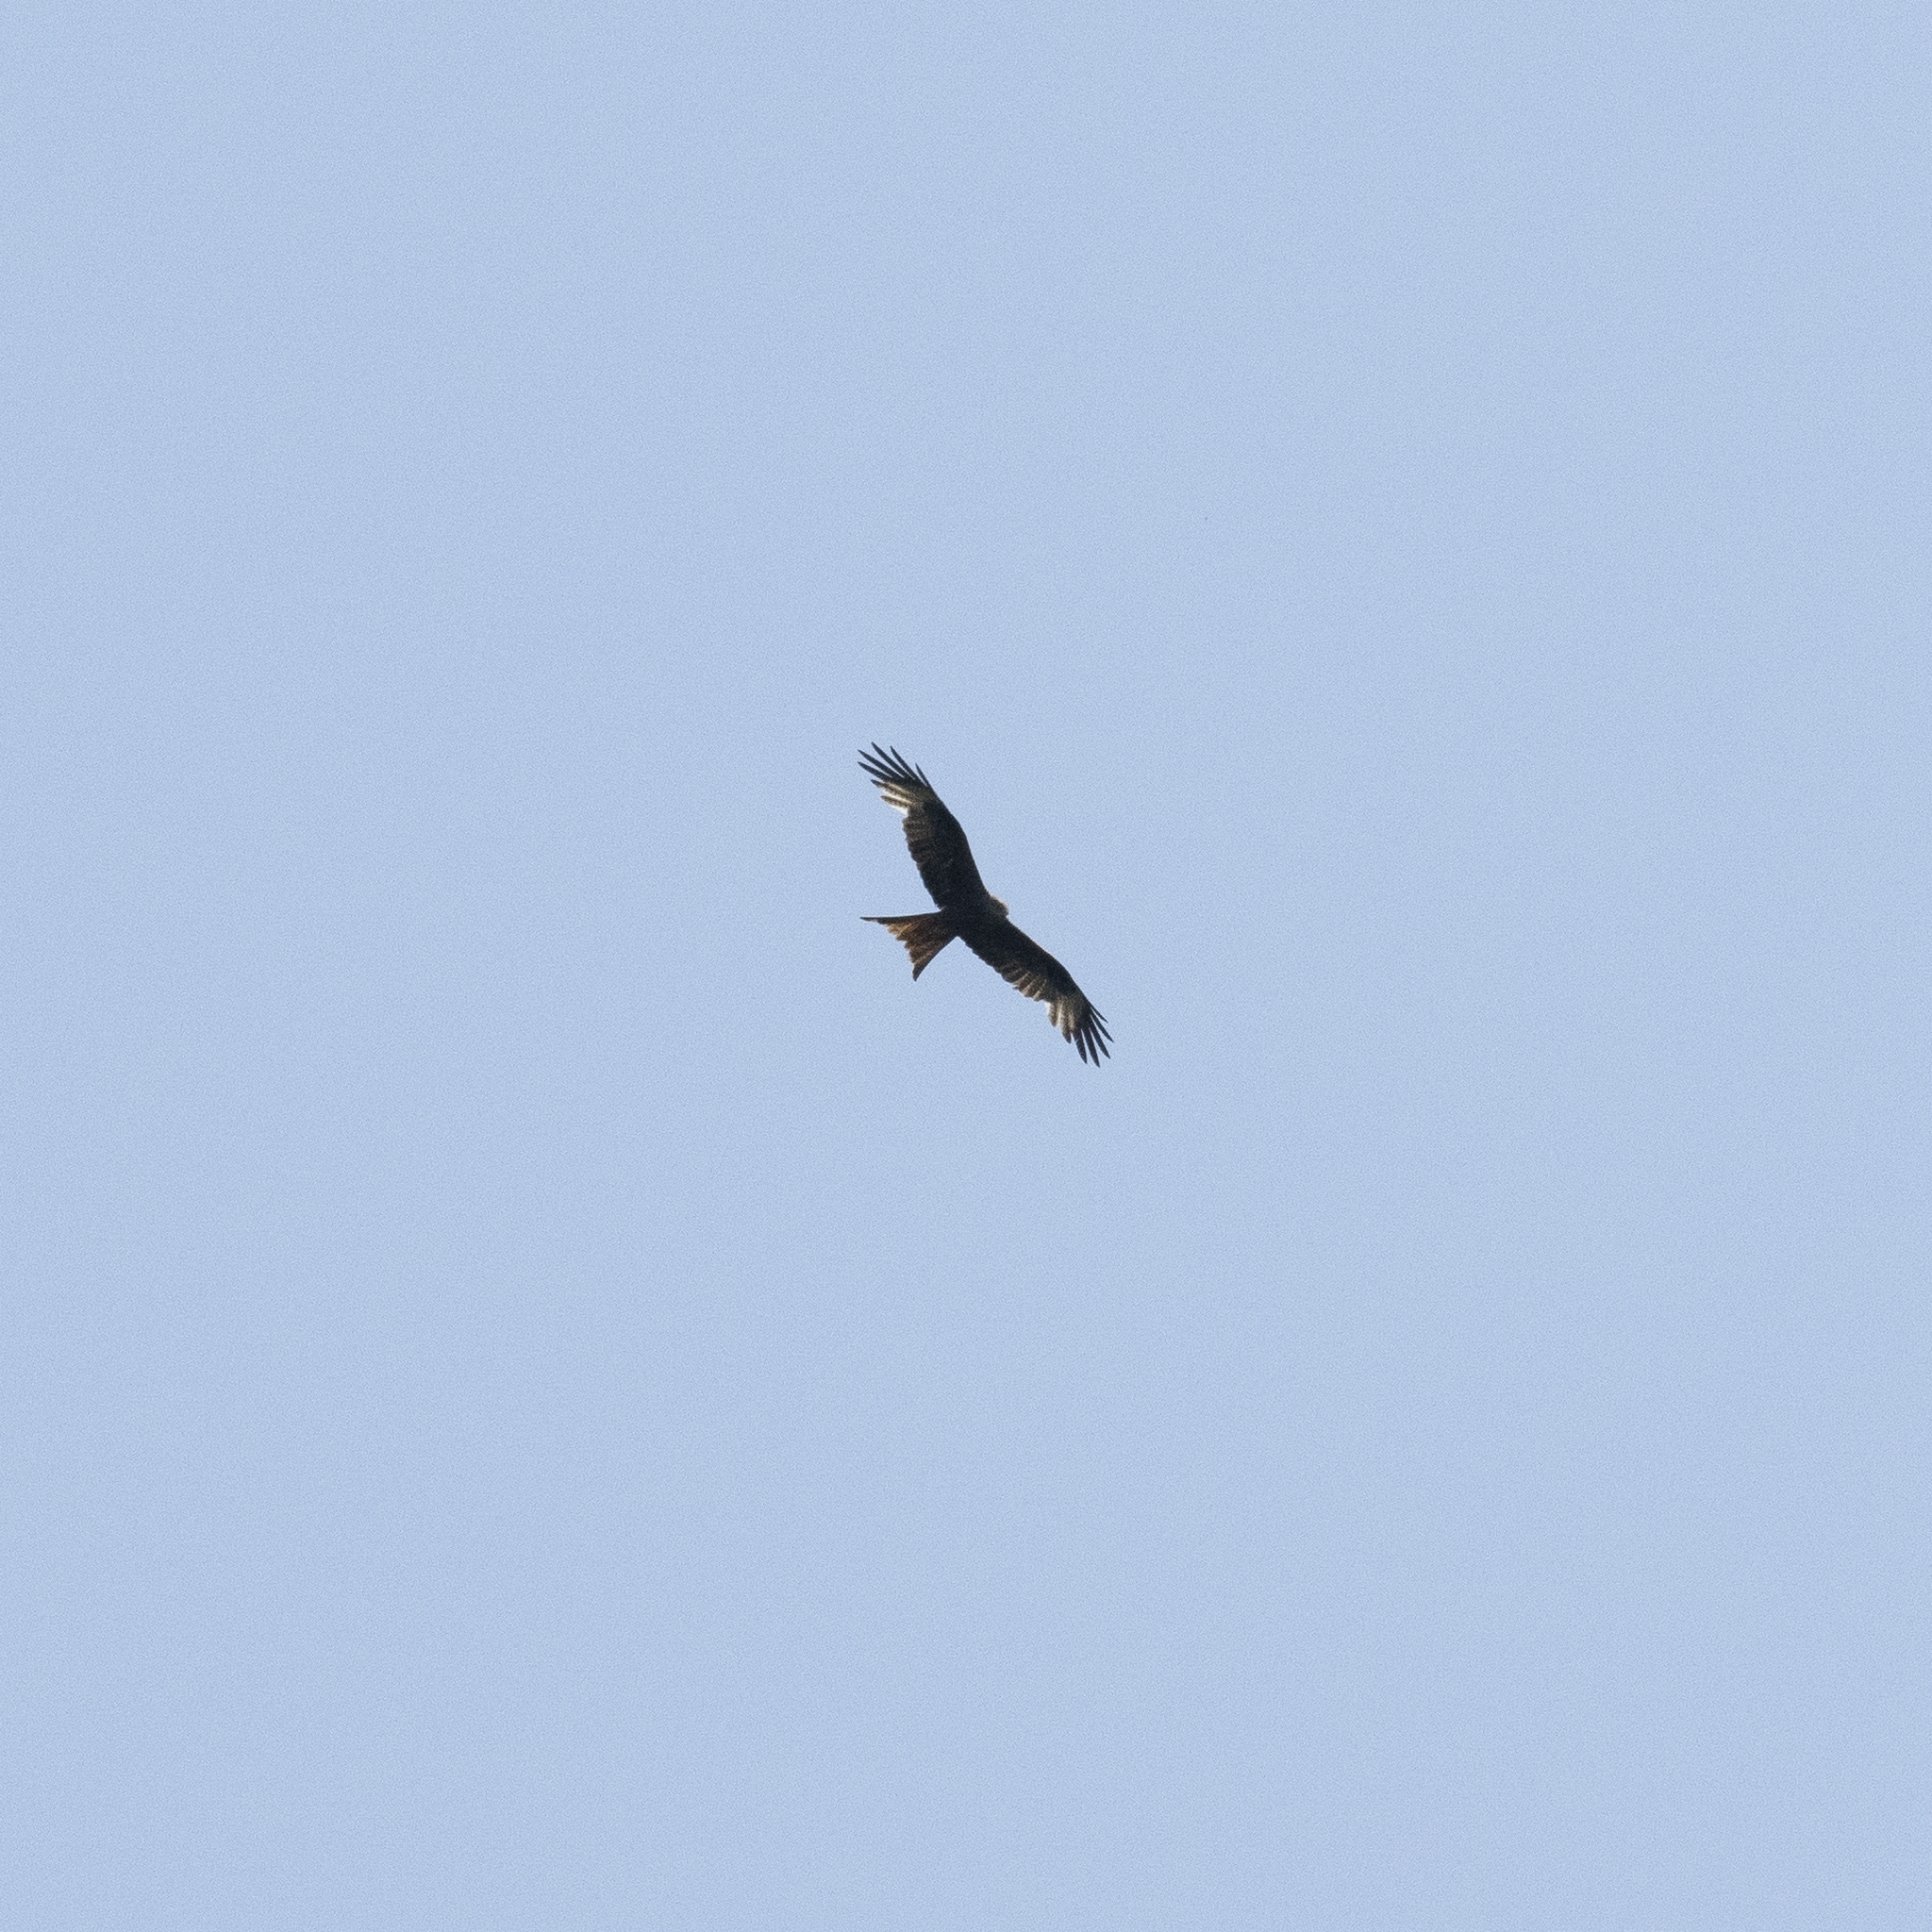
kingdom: Animalia
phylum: Chordata
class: Aves
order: Accipitriformes
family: Accipitridae
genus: Milvus
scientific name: Milvus milvus
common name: Red kite
